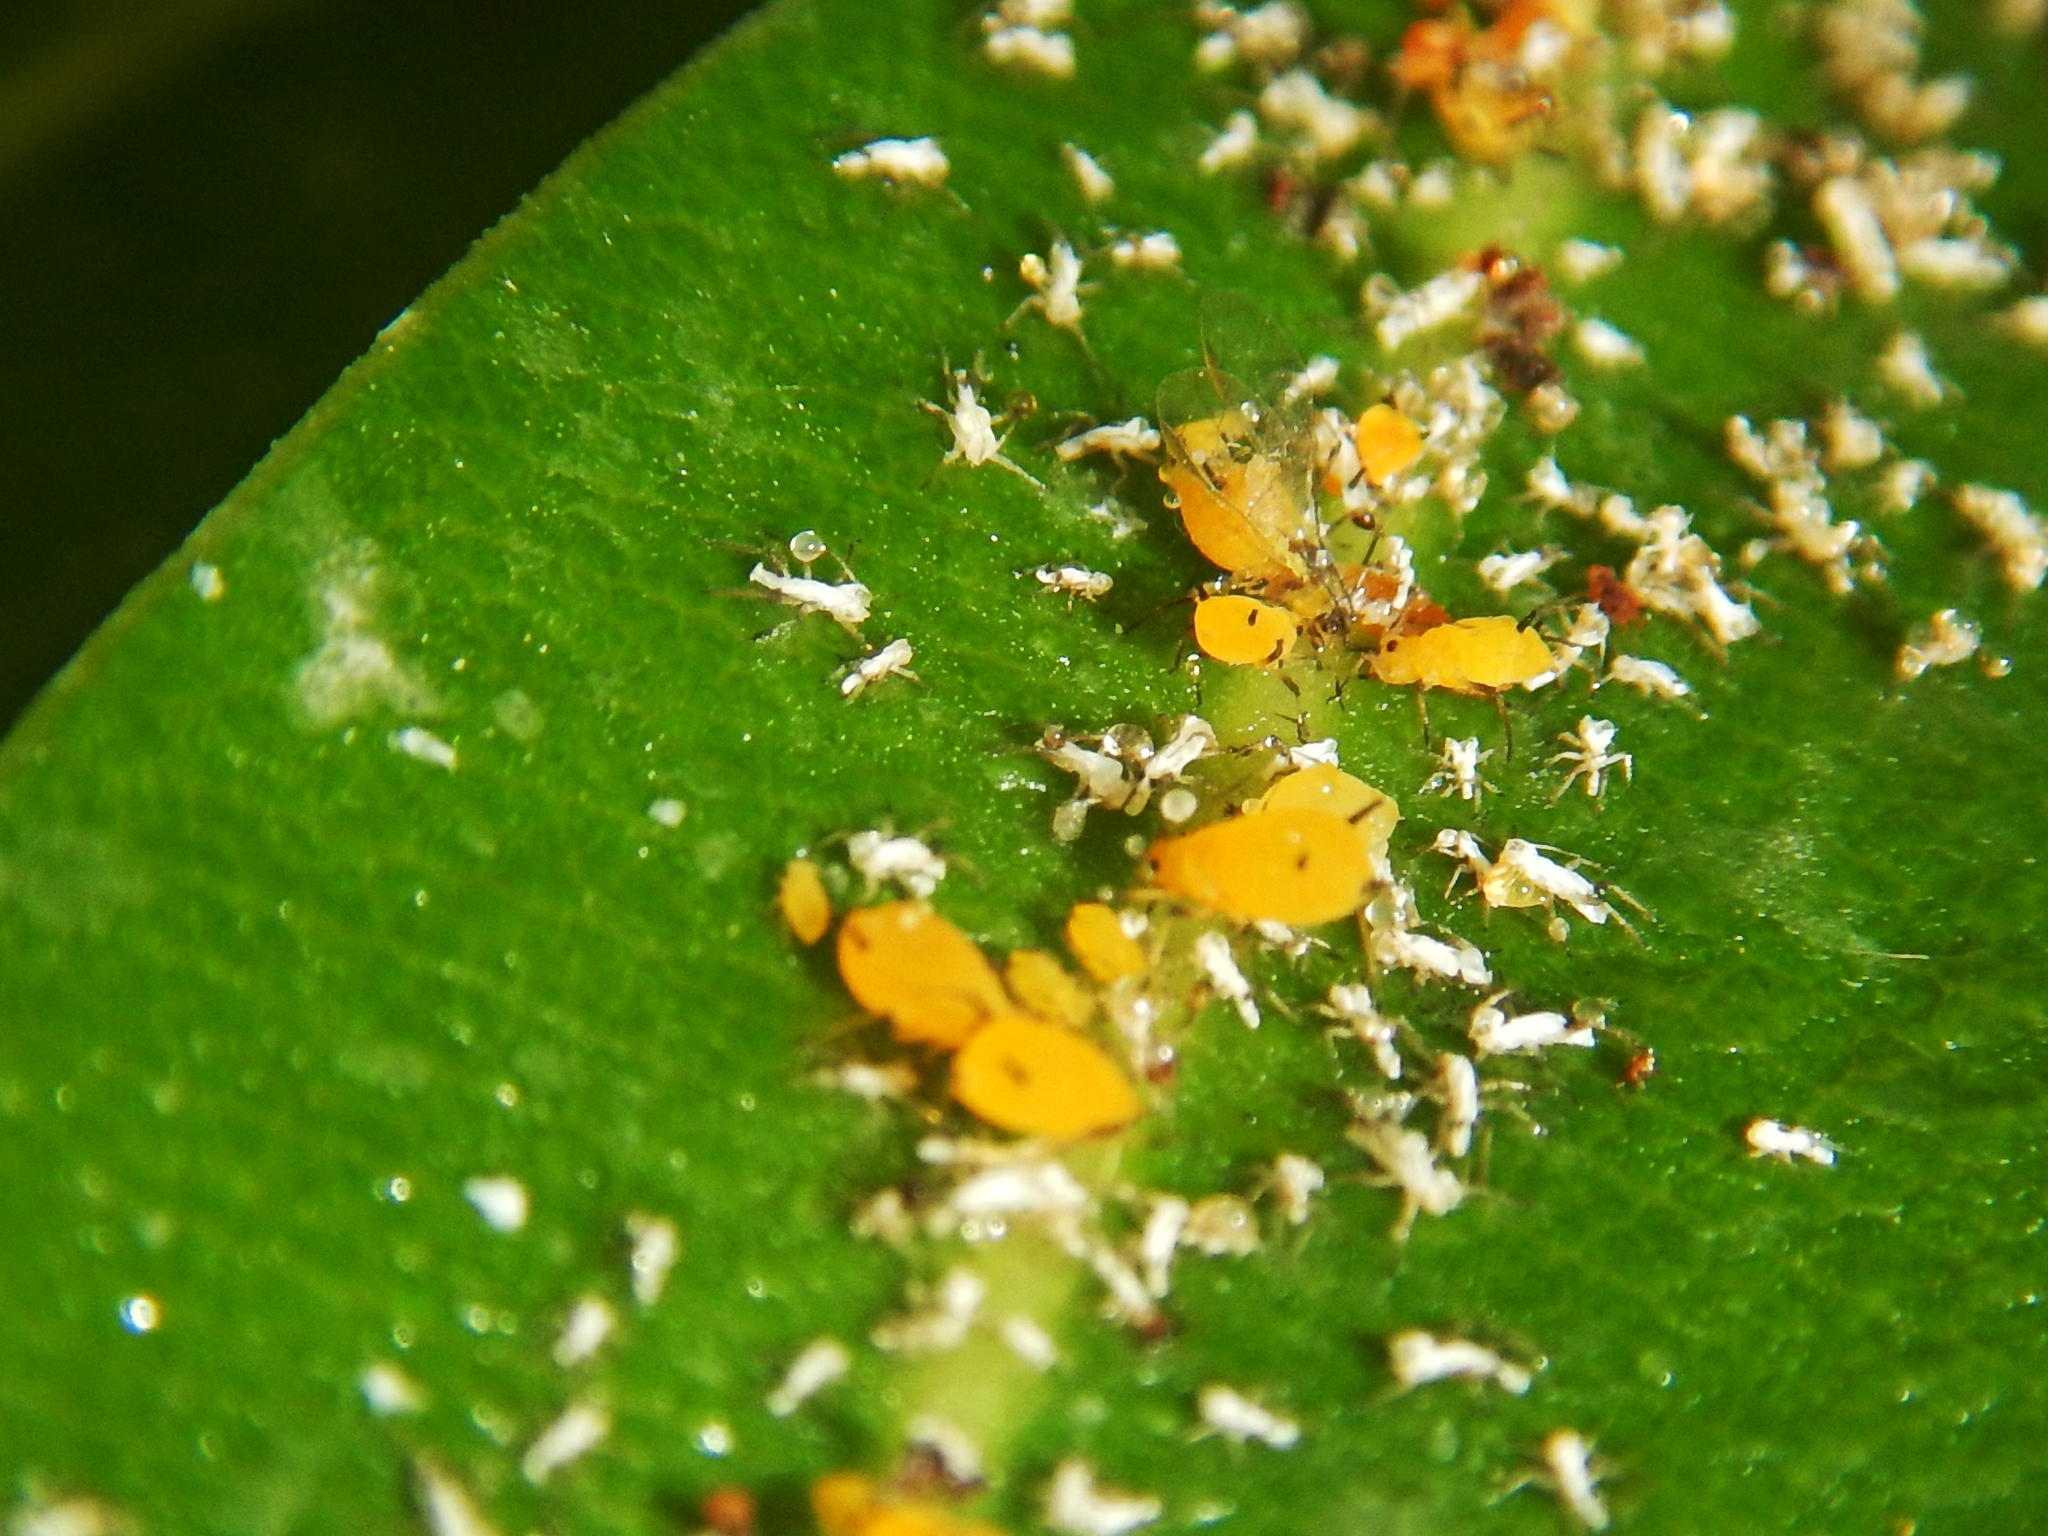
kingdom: Animalia
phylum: Arthropoda
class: Insecta
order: Hemiptera
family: Aphididae
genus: Aphis
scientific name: Aphis nerii
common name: Oleander aphid
